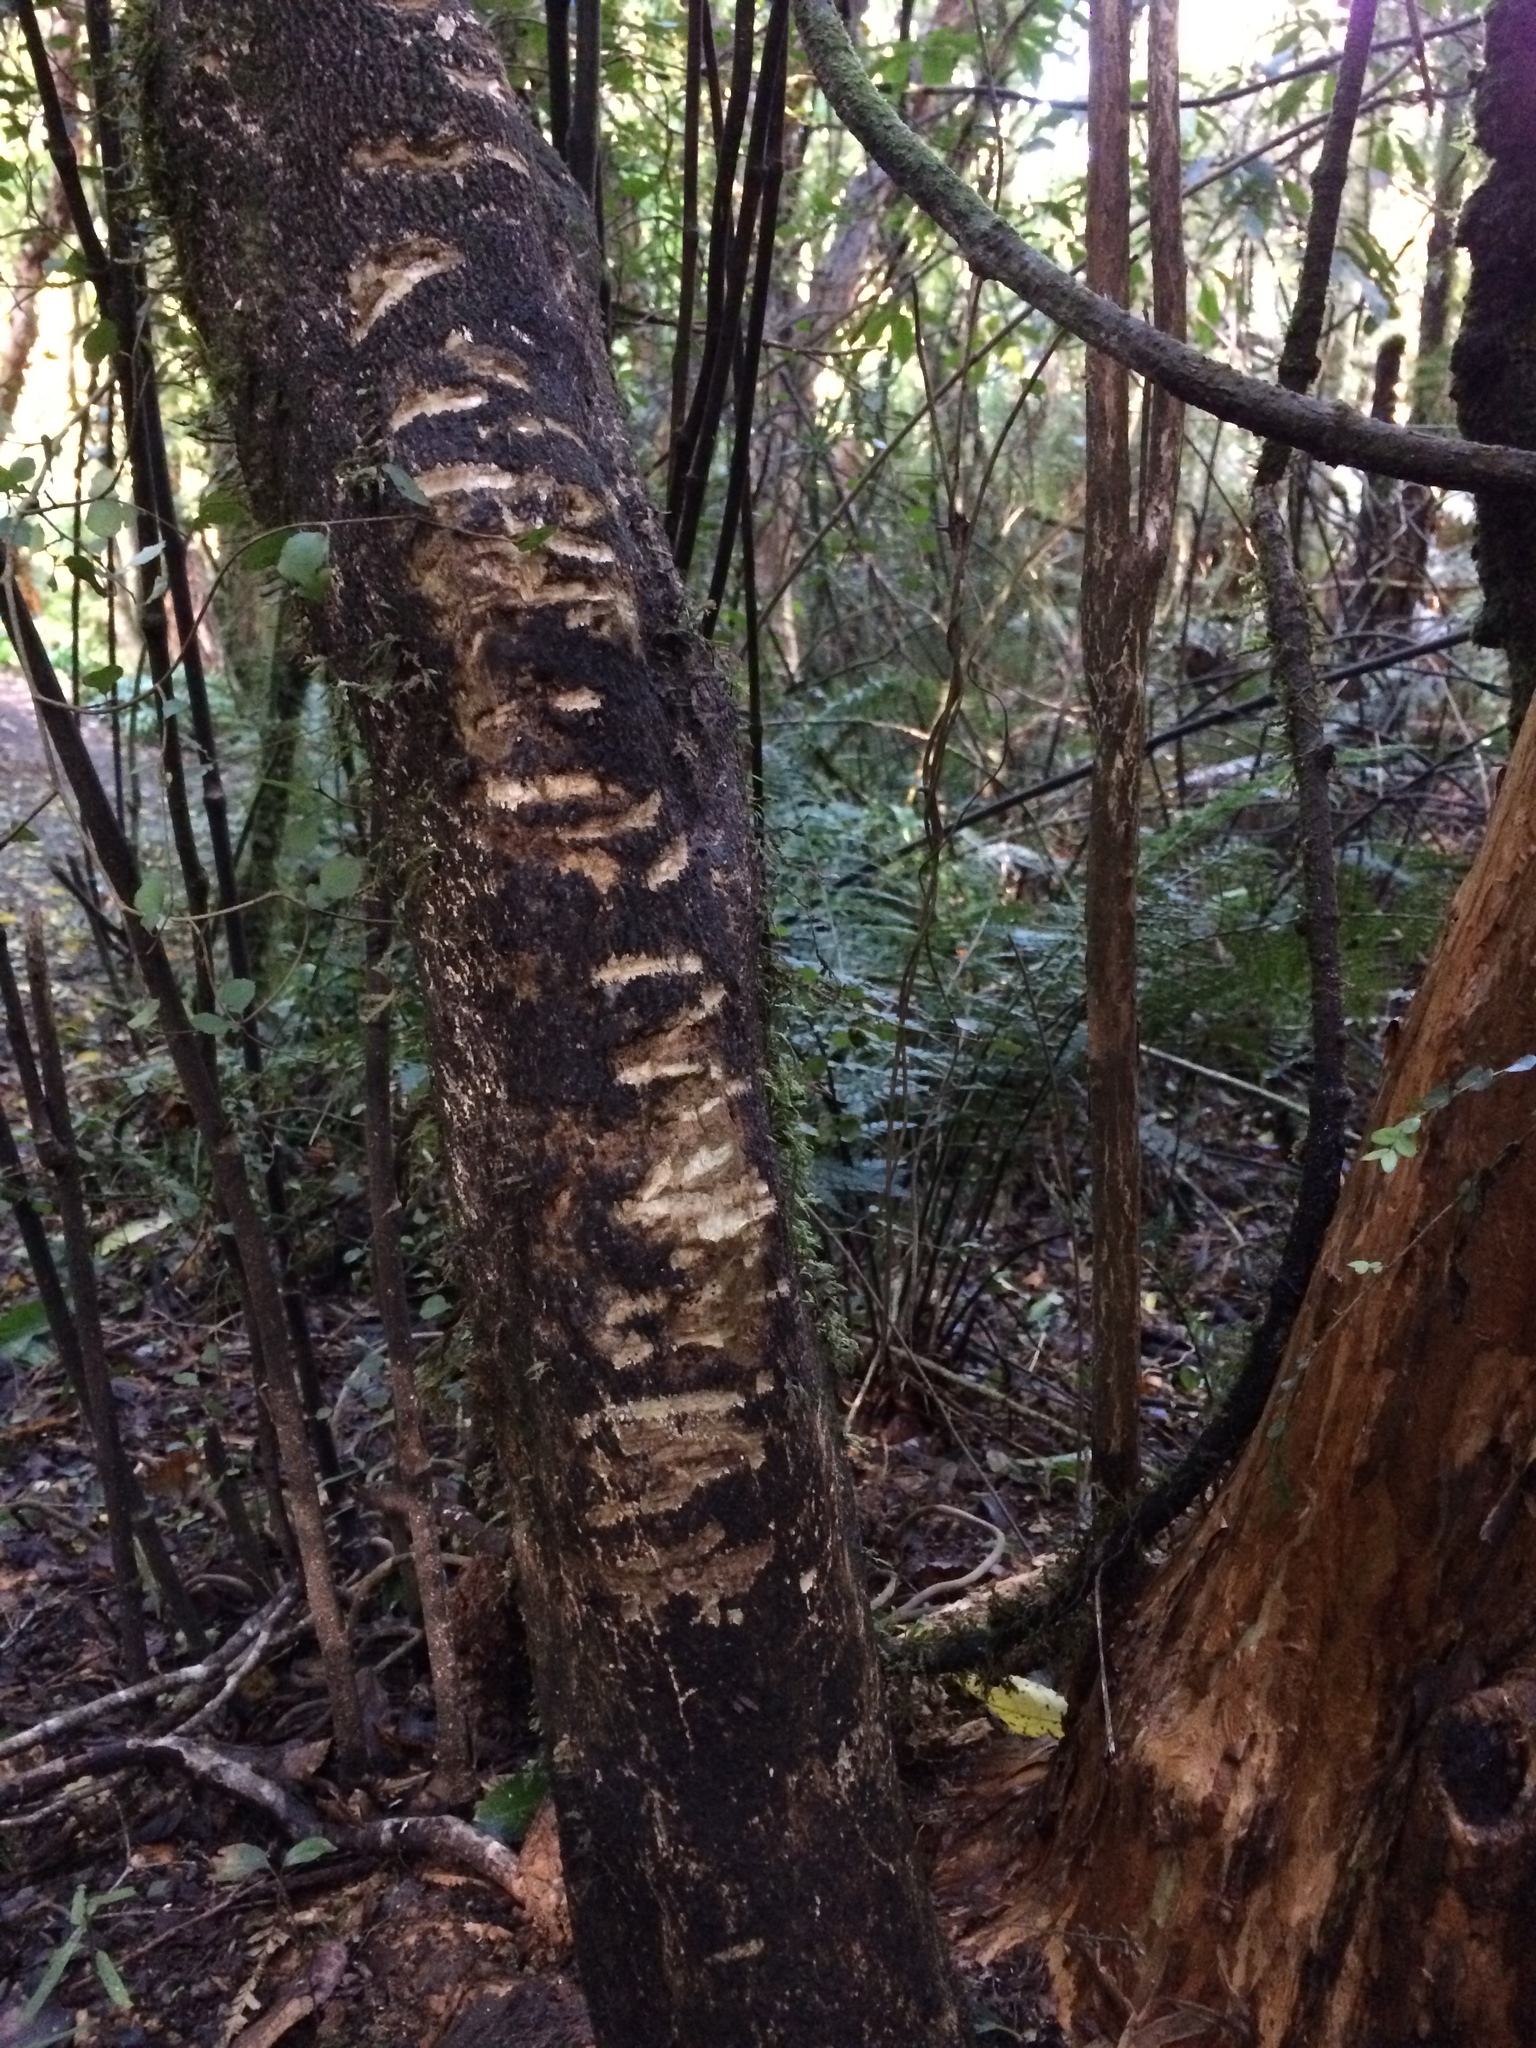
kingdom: Animalia
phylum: Chordata
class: Mammalia
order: Diprotodontia
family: Phalangeridae
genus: Trichosurus
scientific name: Trichosurus vulpecula
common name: Common brushtail
